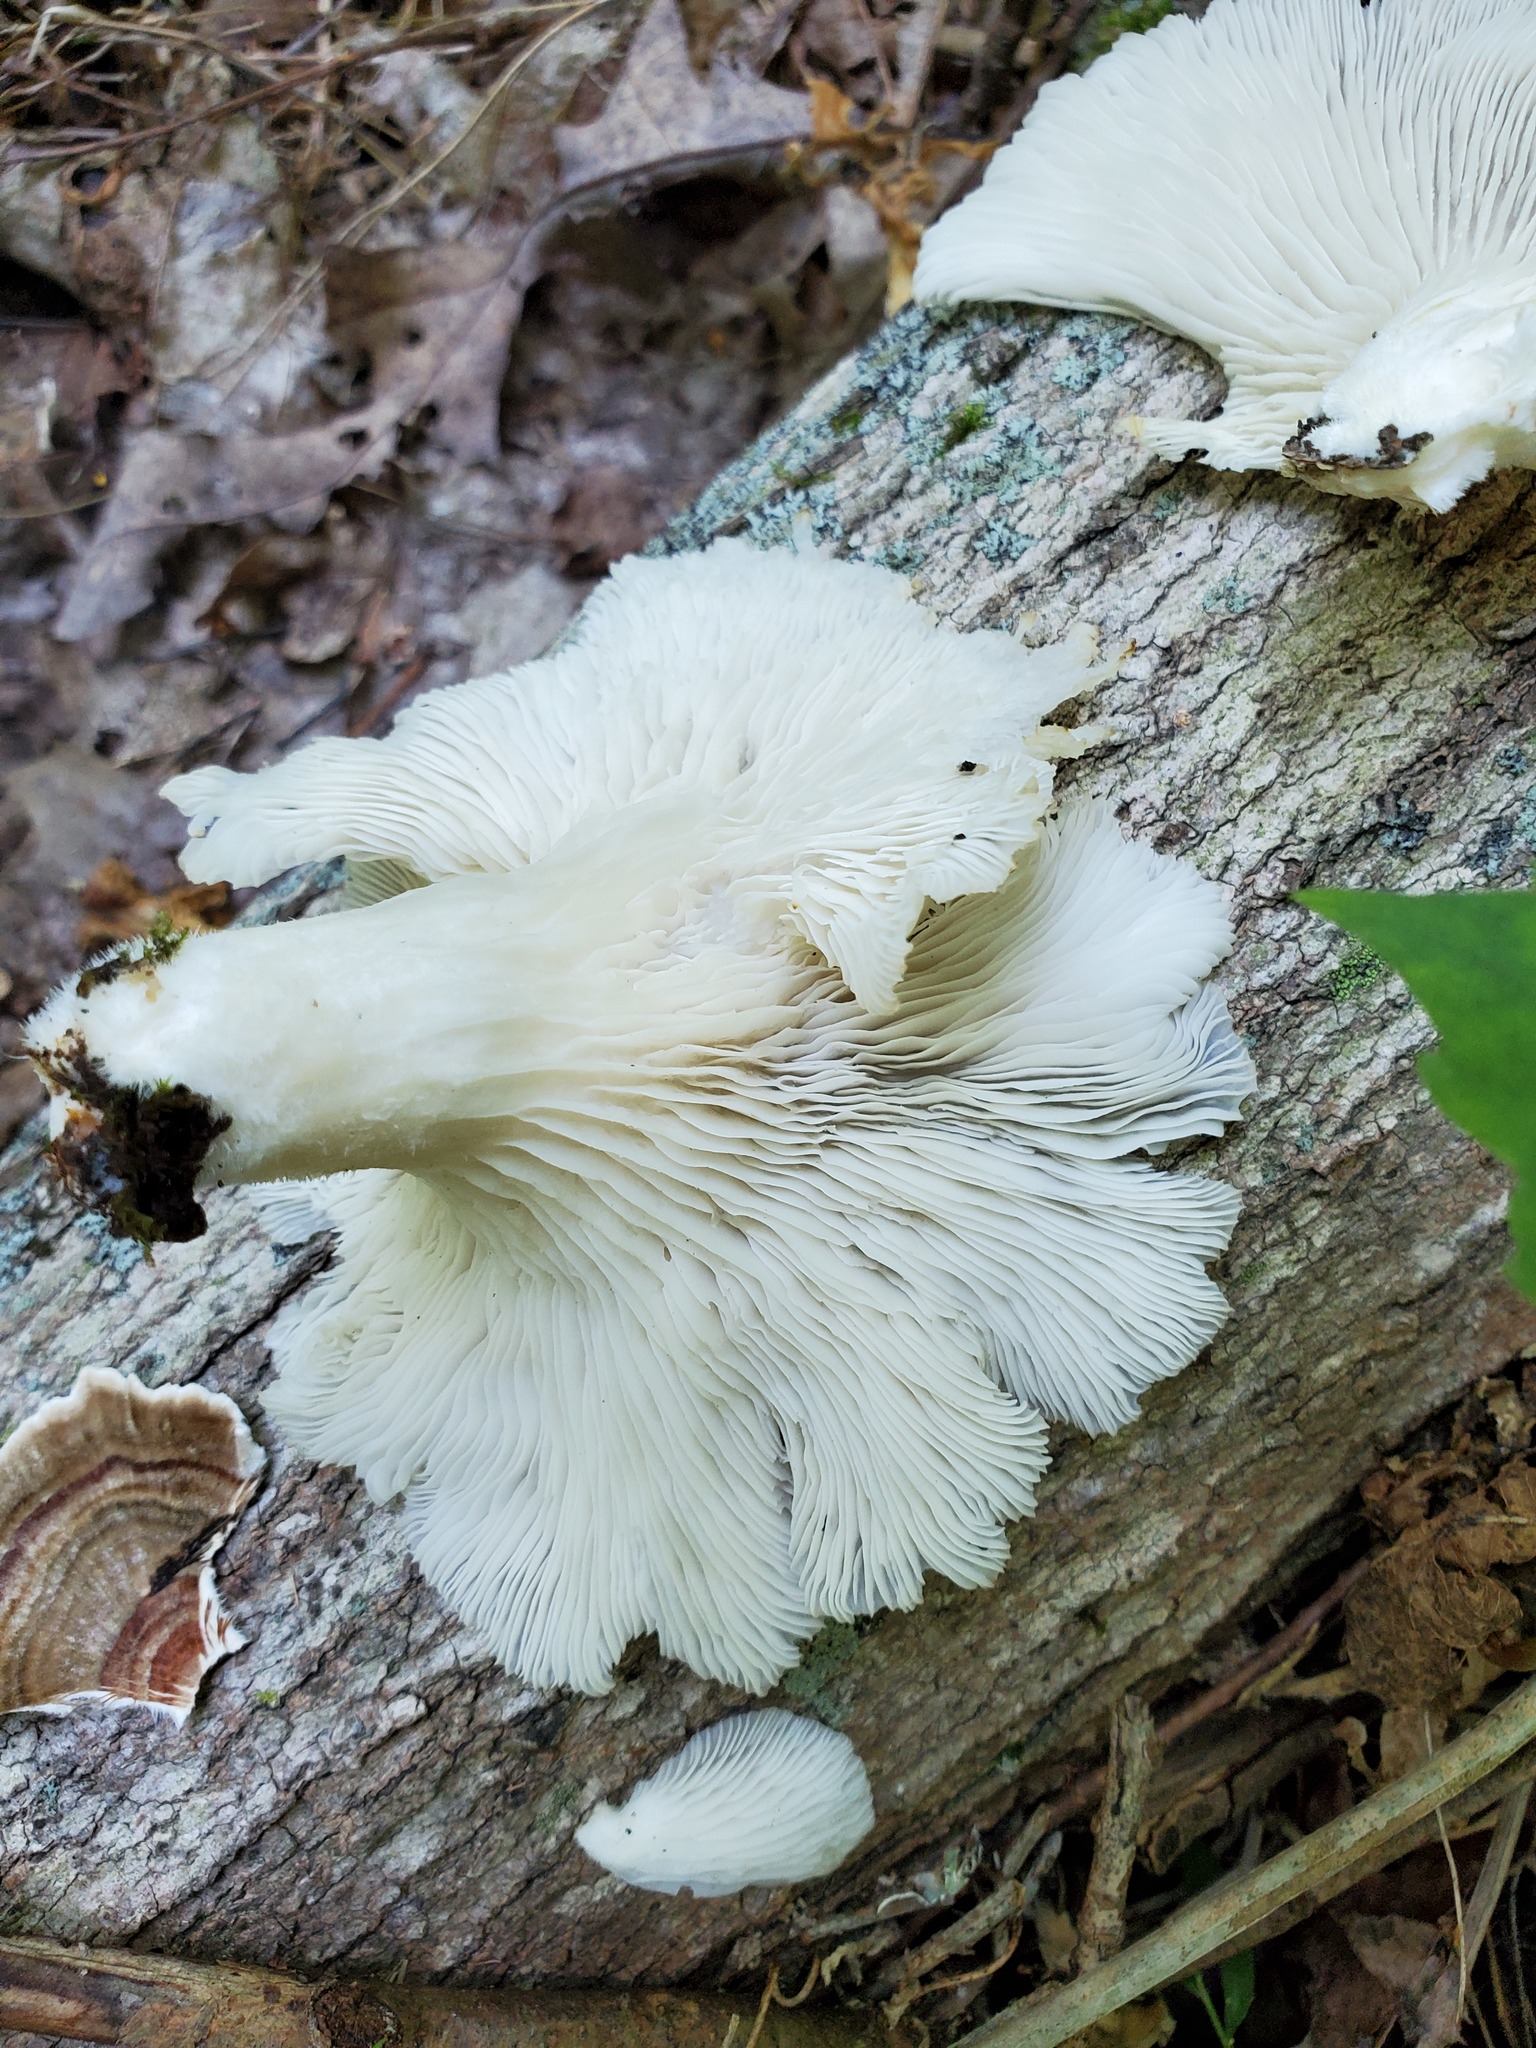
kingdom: Fungi
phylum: Basidiomycota
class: Agaricomycetes
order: Agaricales
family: Pleurotaceae
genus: Pleurotus
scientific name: Pleurotus pulmonarius
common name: Pale oyster
